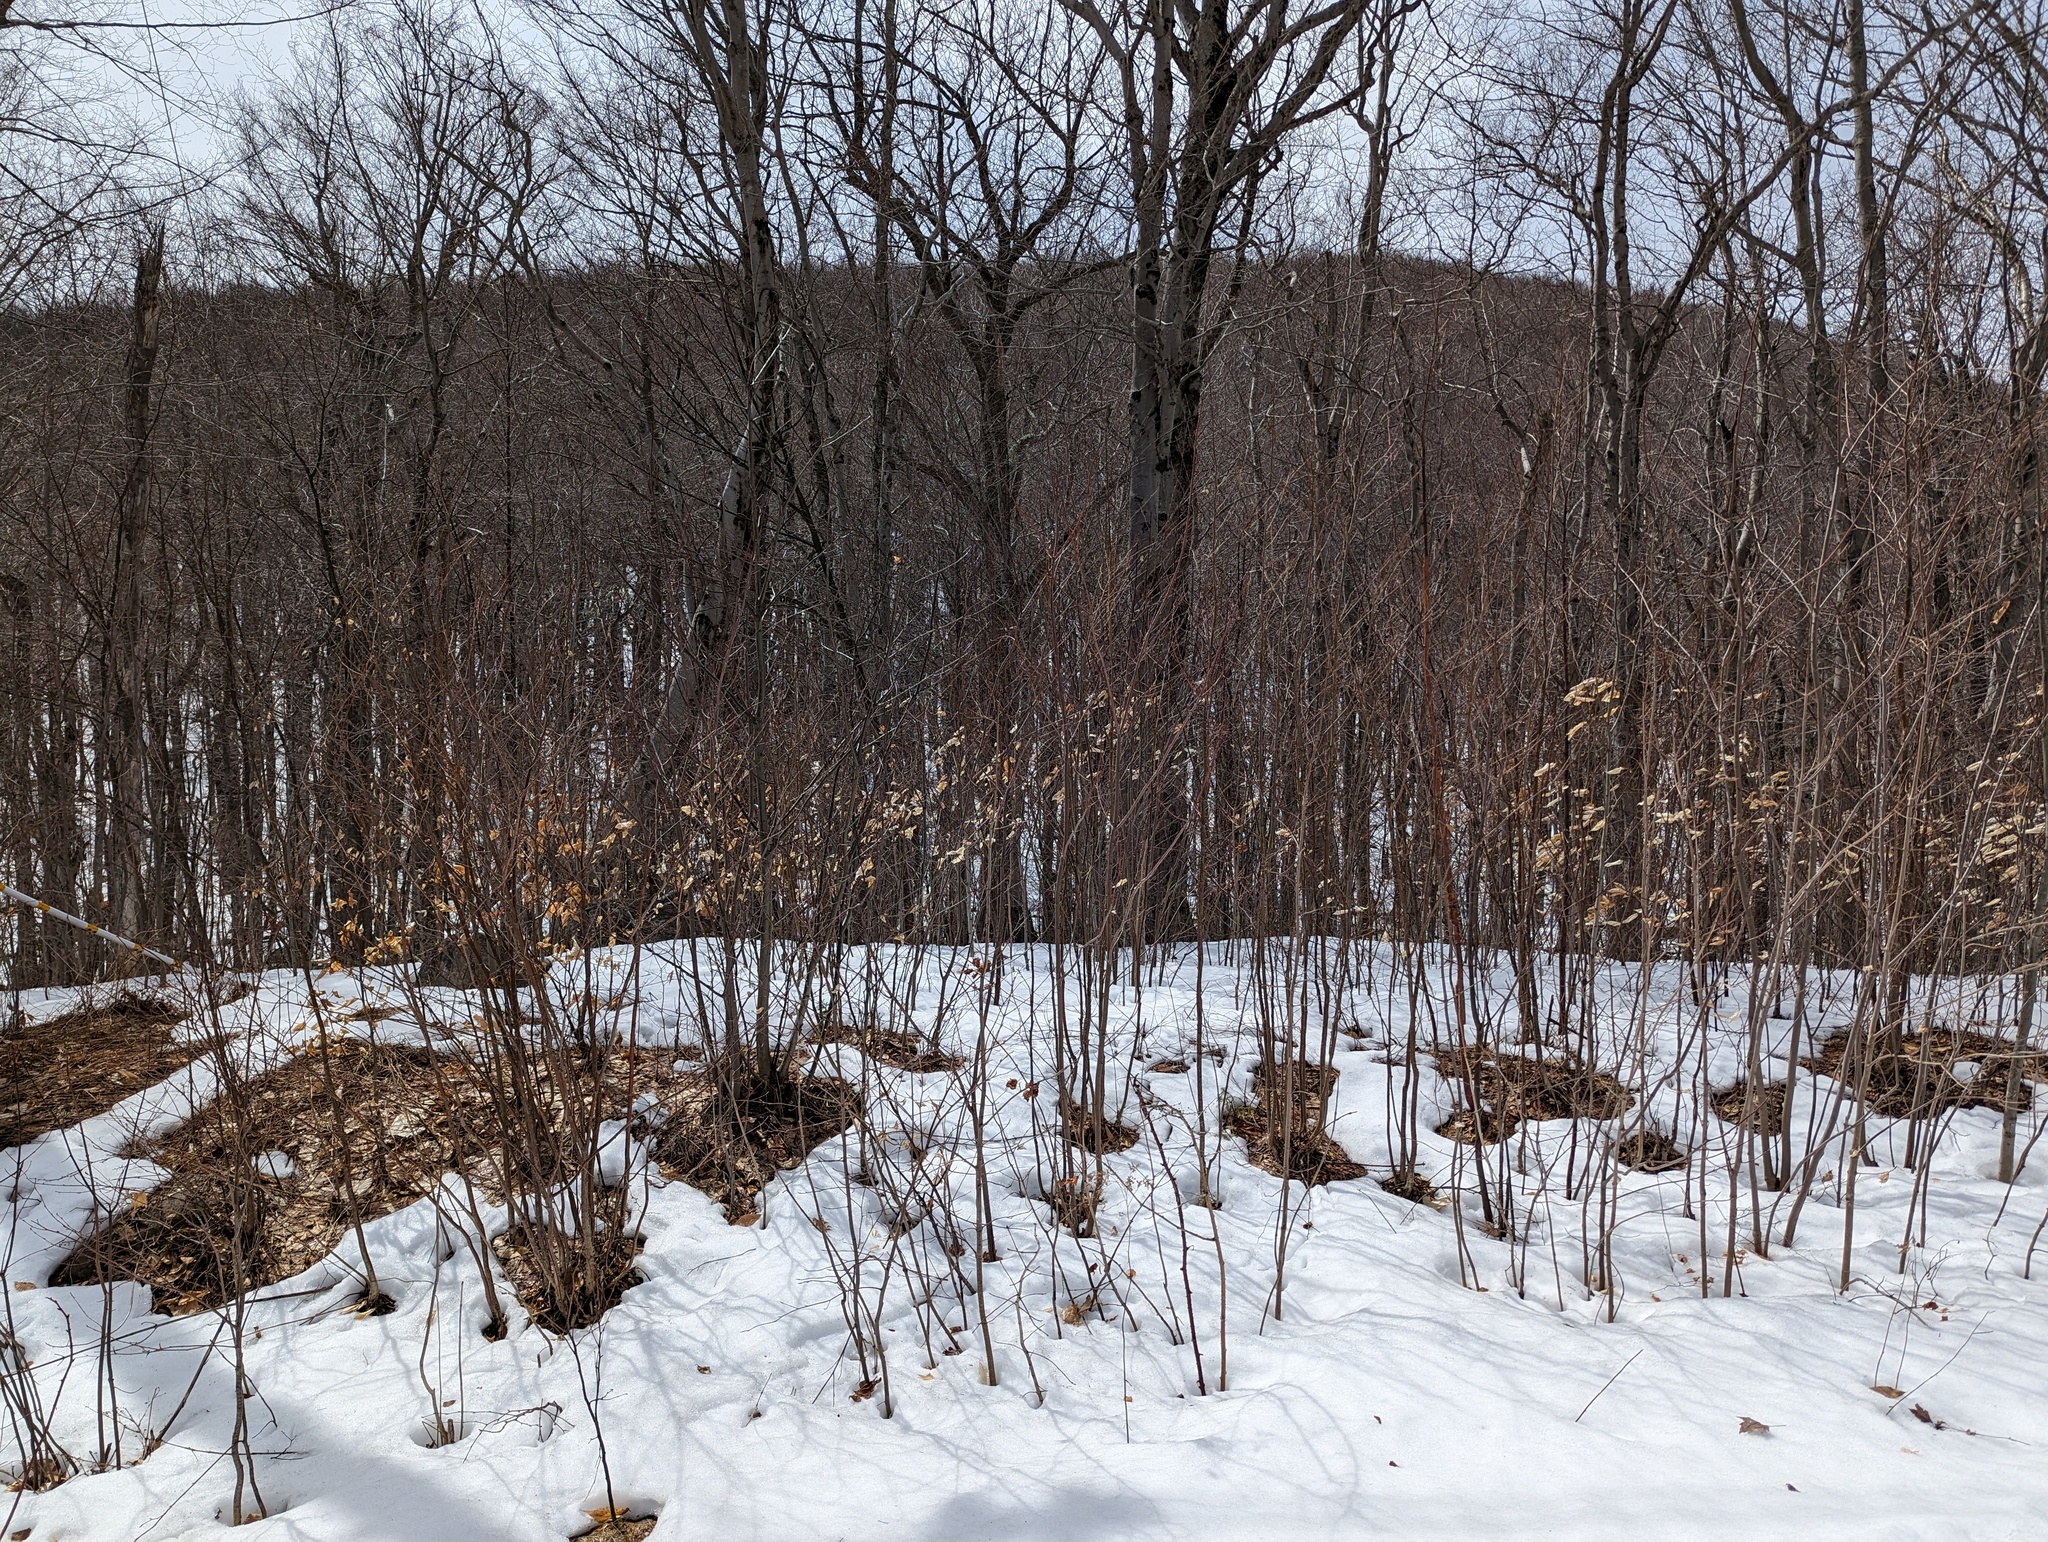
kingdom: Plantae
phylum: Tracheophyta
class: Magnoliopsida
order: Fagales
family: Fagaceae
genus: Fagus
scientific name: Fagus grandifolia
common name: American beech
